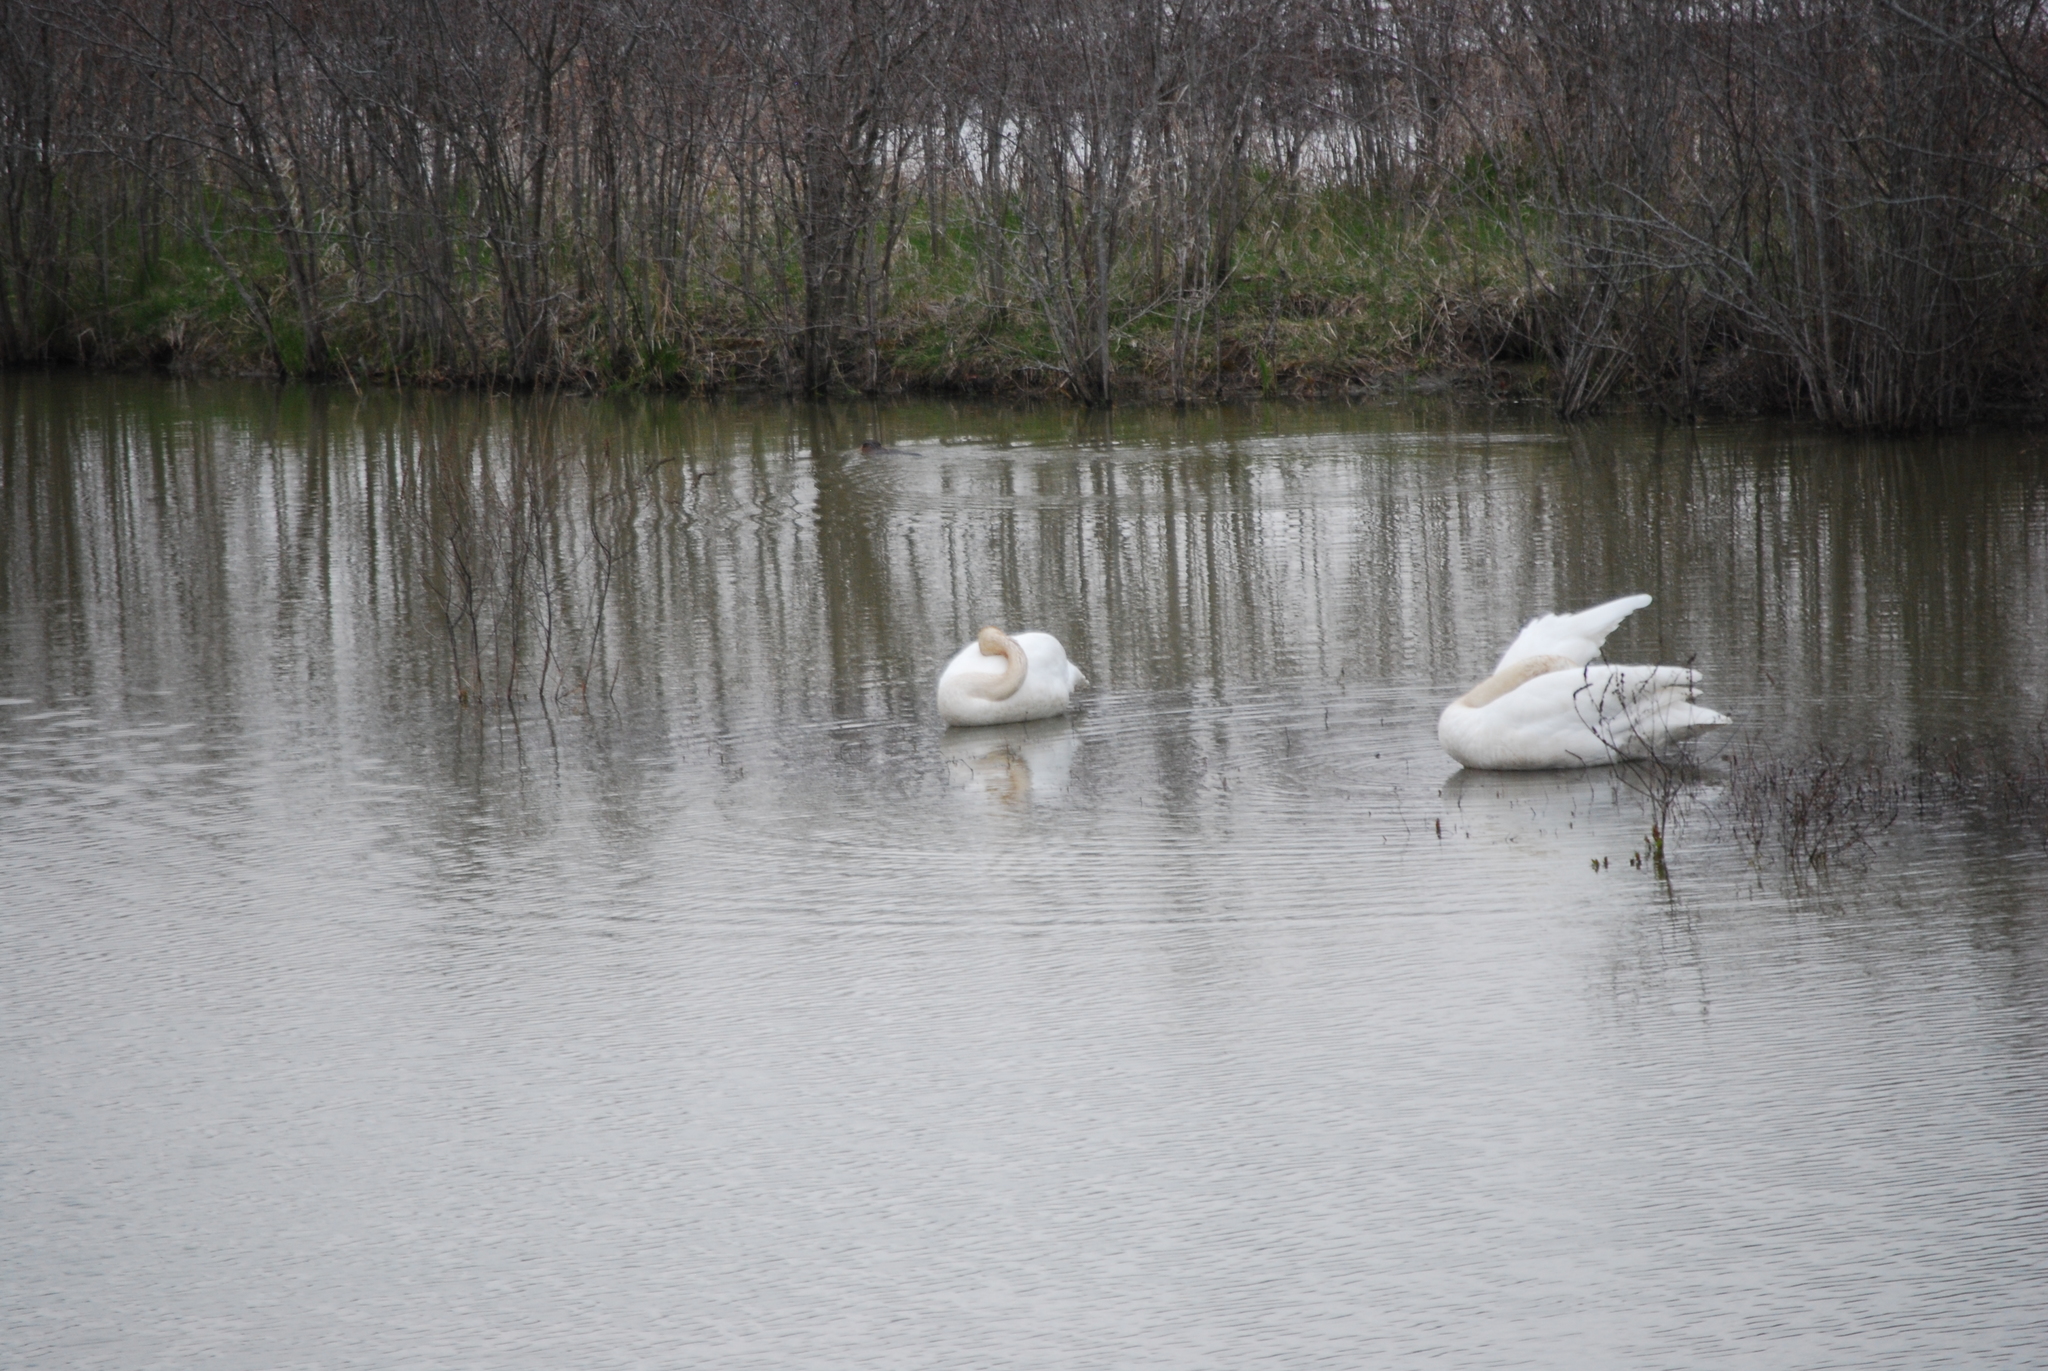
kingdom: Animalia
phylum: Chordata
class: Aves
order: Anseriformes
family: Anatidae
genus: Cygnus
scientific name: Cygnus buccinator
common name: Trumpeter swan
